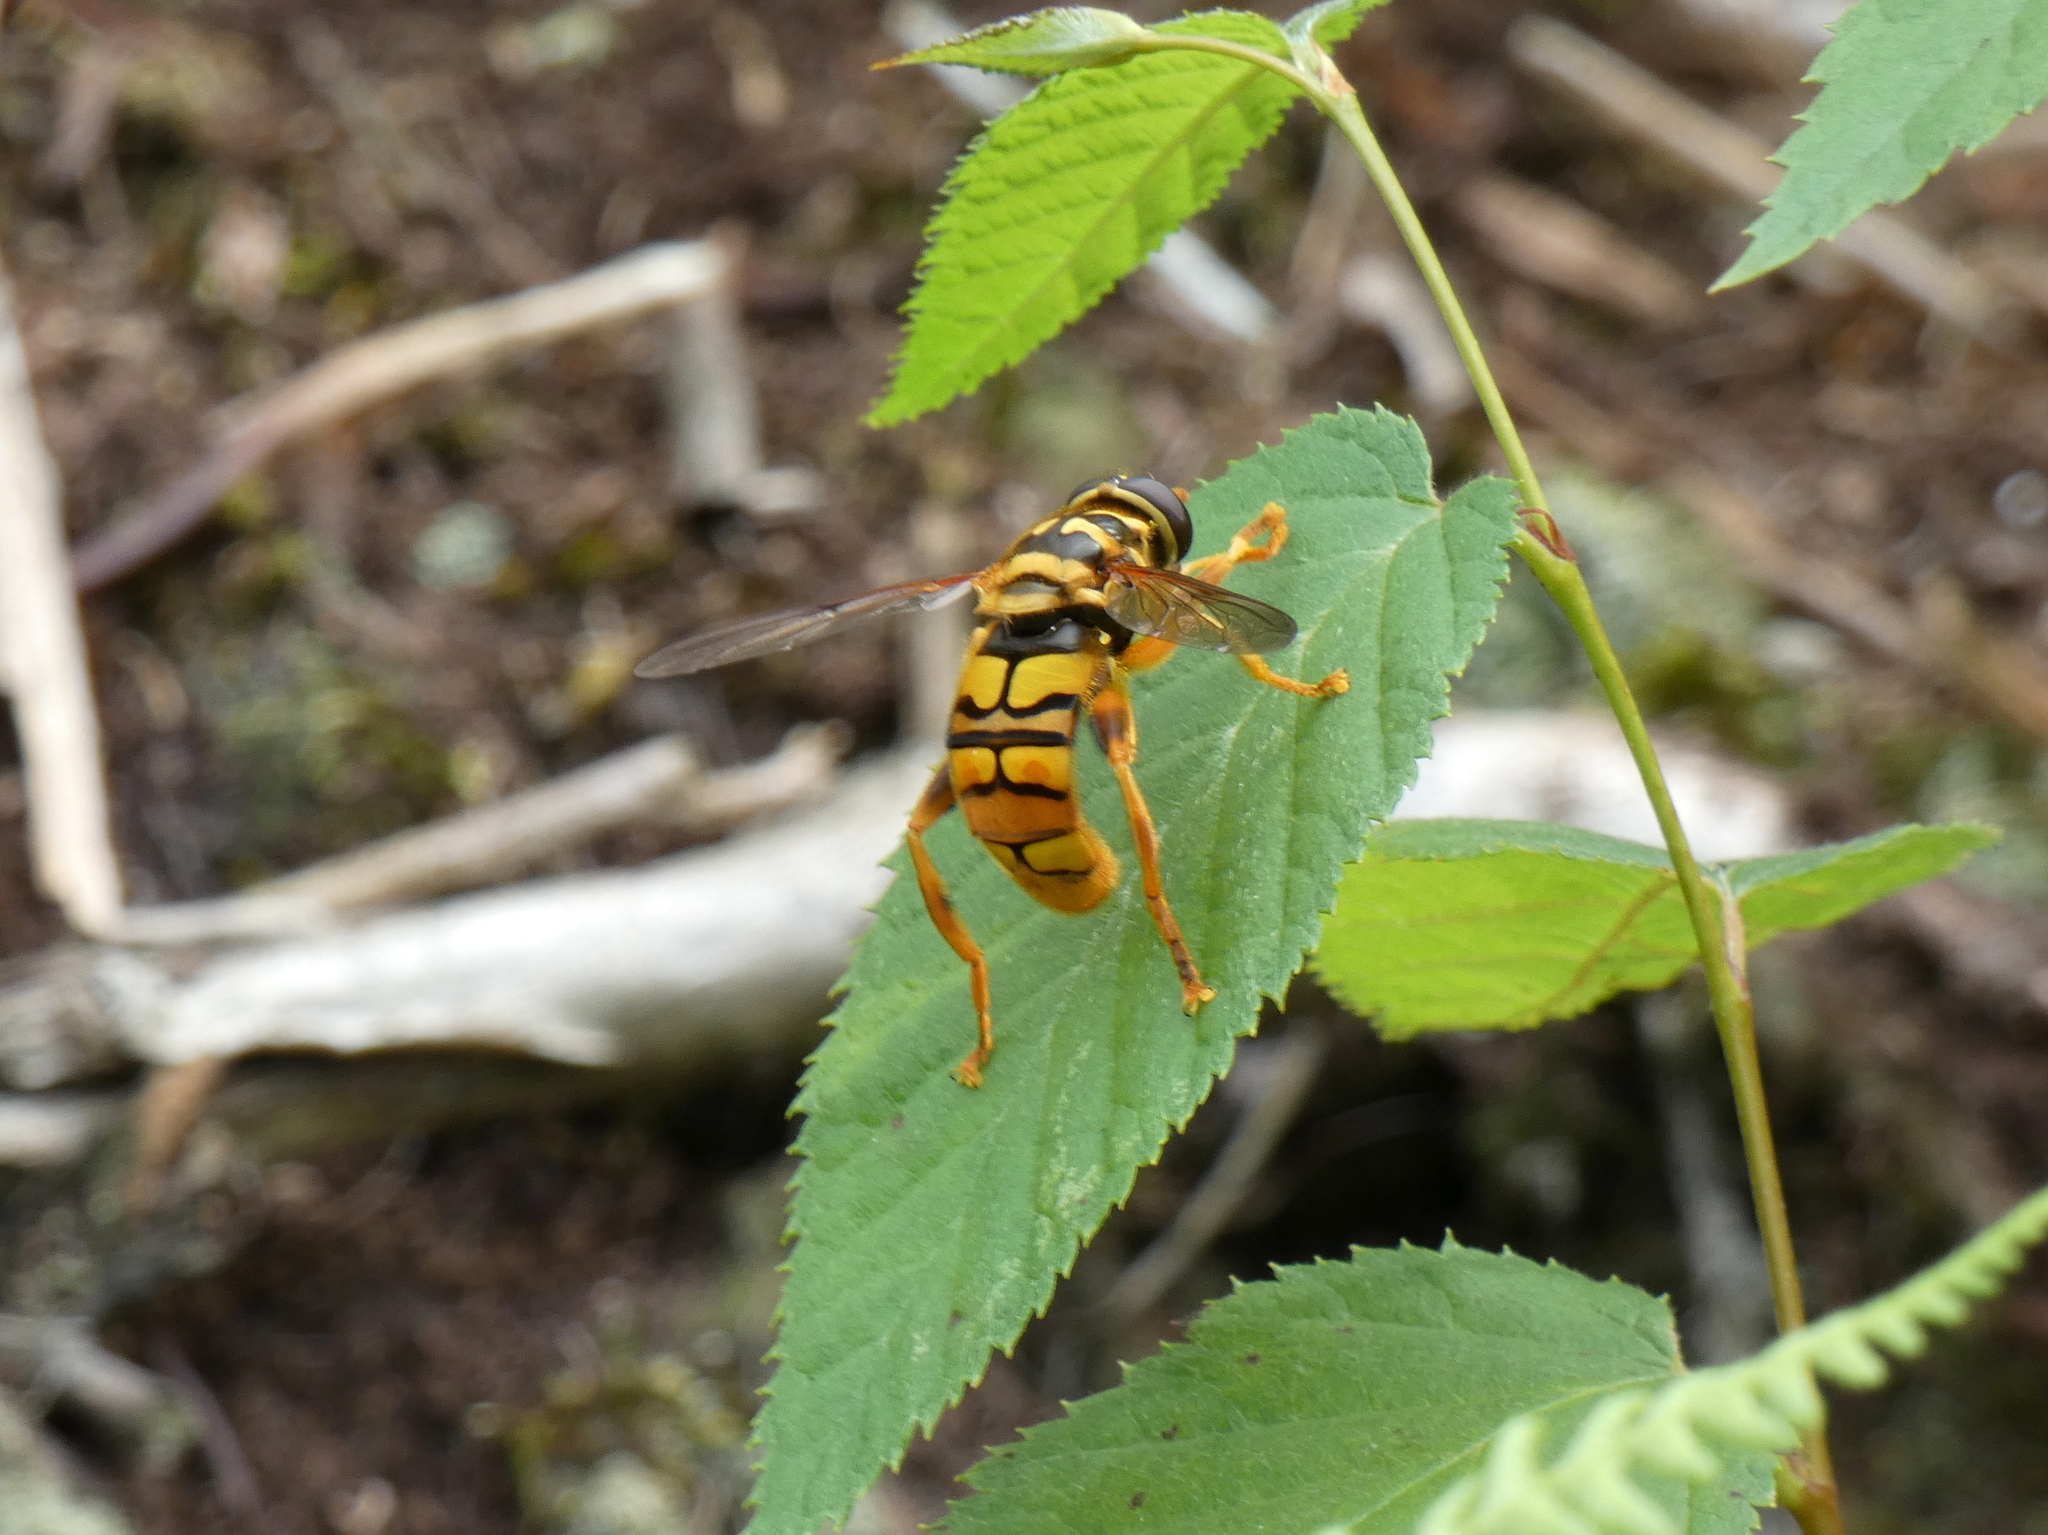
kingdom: Animalia
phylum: Arthropoda
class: Insecta
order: Diptera
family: Syrphidae
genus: Milesia
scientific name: Milesia virginiensis
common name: Virginia giant
